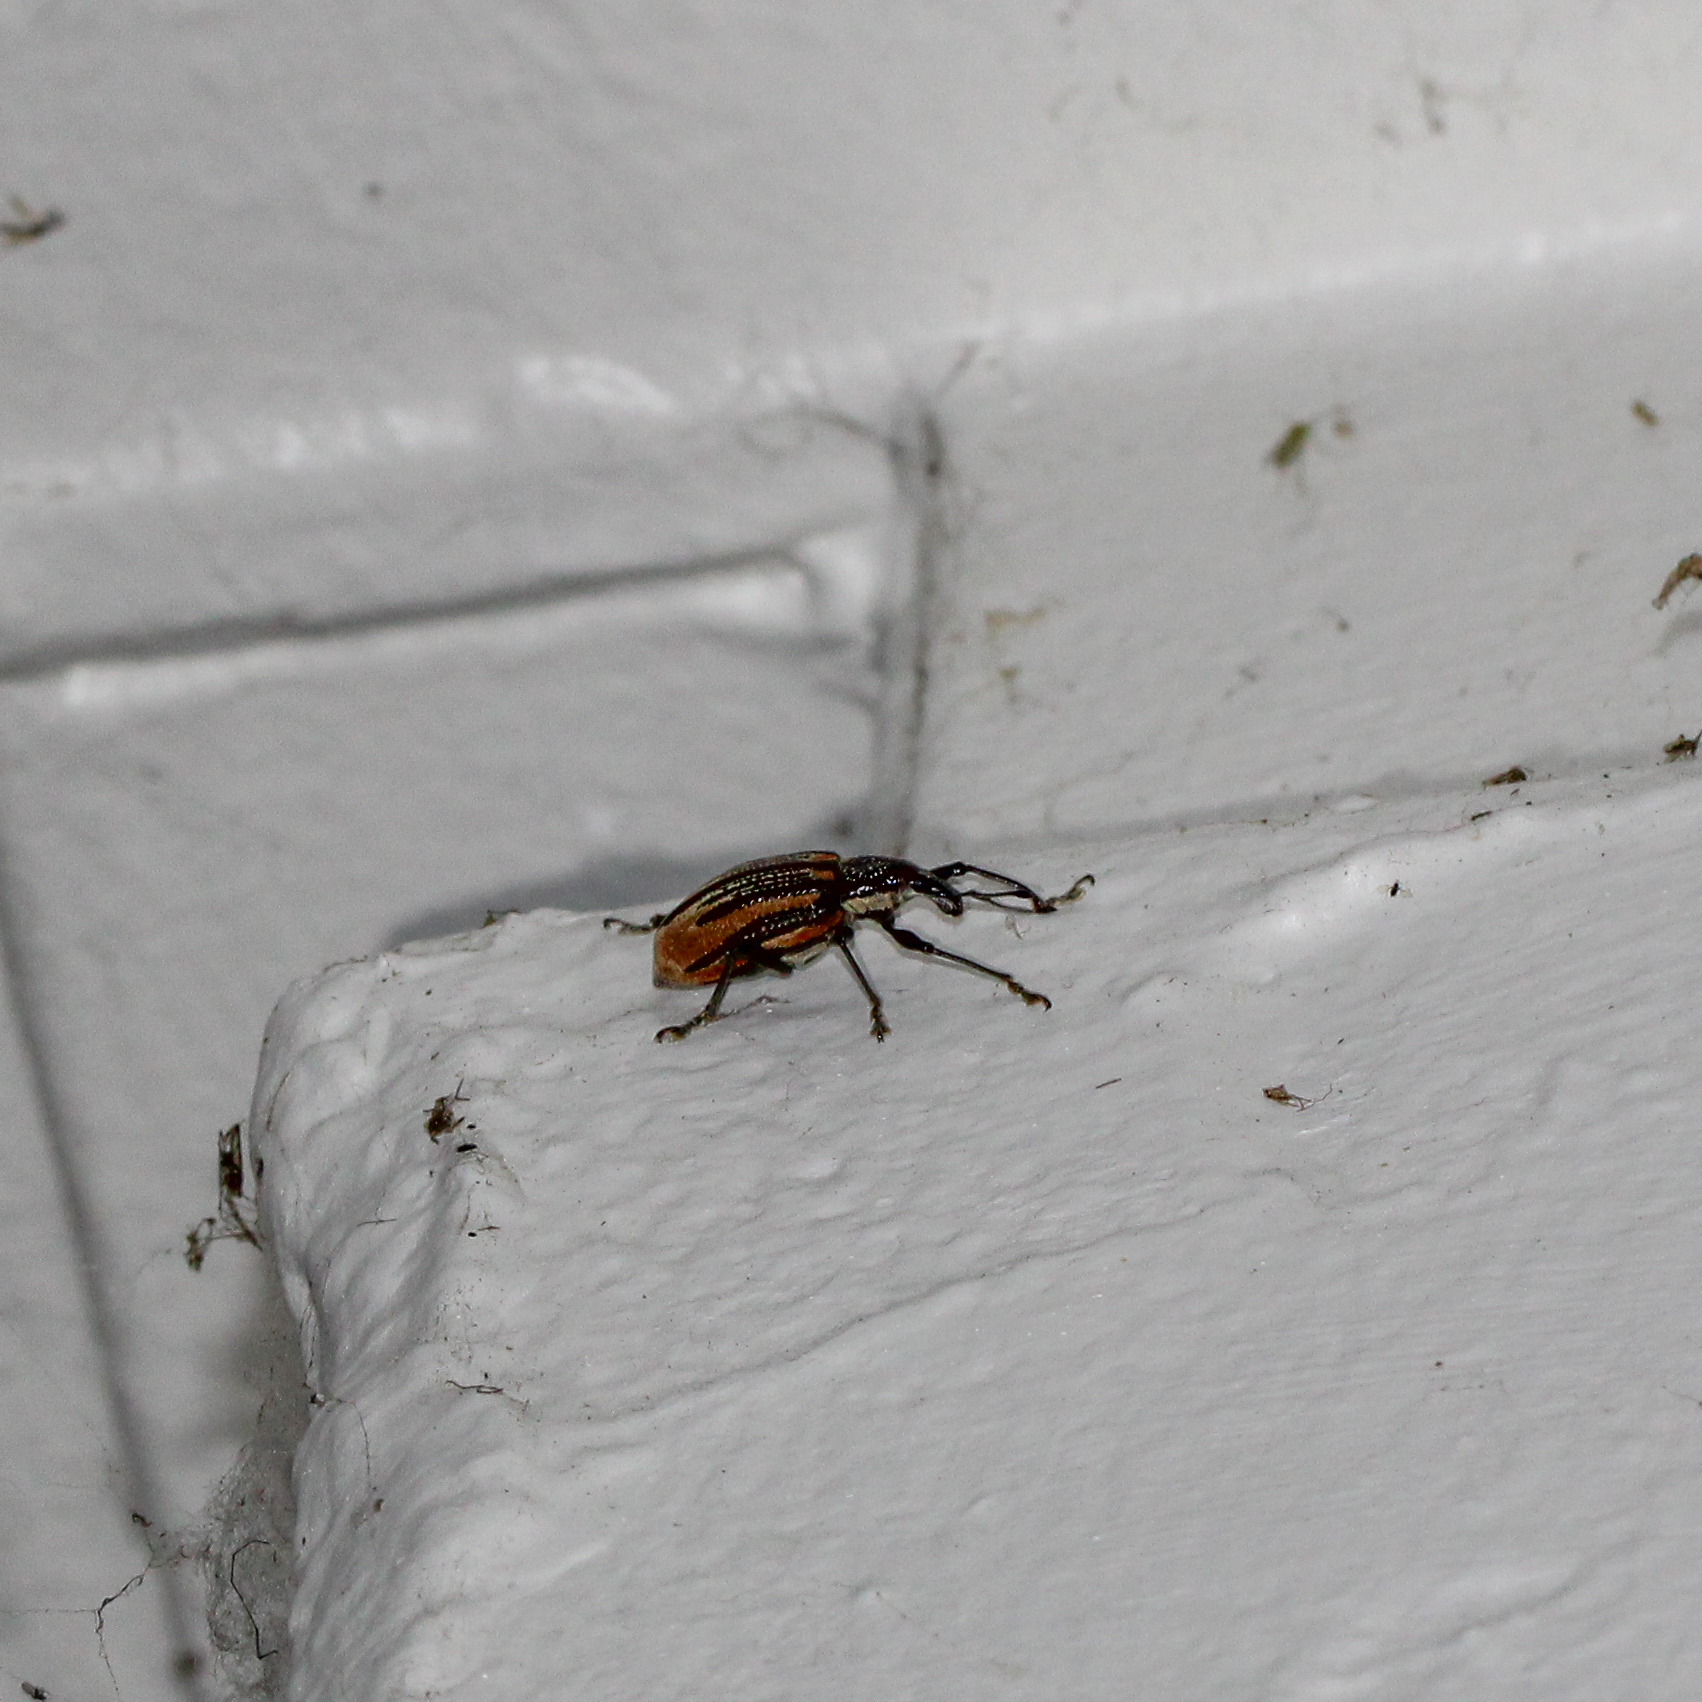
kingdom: Animalia
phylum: Arthropoda
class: Insecta
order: Coleoptera
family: Curculionidae
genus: Diaprepes
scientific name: Diaprepes abbreviatus
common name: Root weevil
